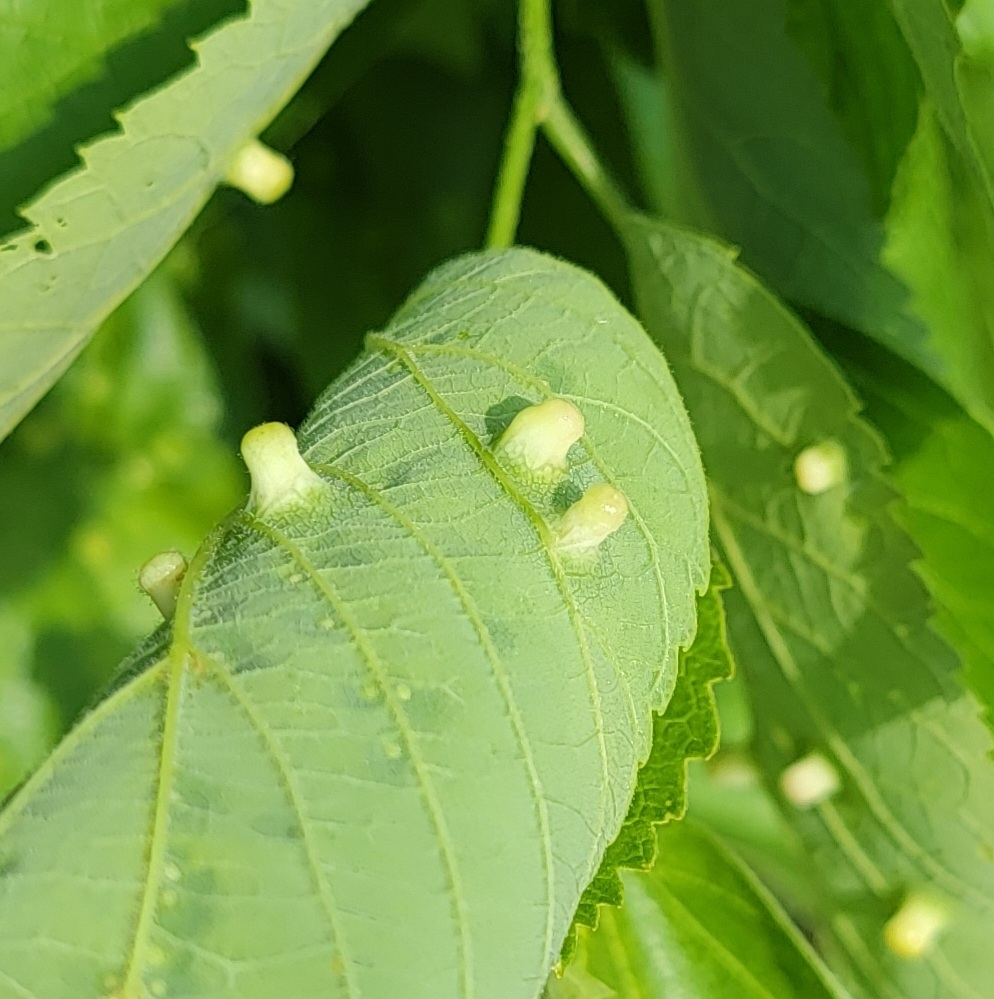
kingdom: Animalia
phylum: Arthropoda
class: Insecta
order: Hemiptera
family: Aphalaridae
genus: Pachypsylla
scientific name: Pachypsylla celtidismamma
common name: Hackberry nipplegall psyllid
